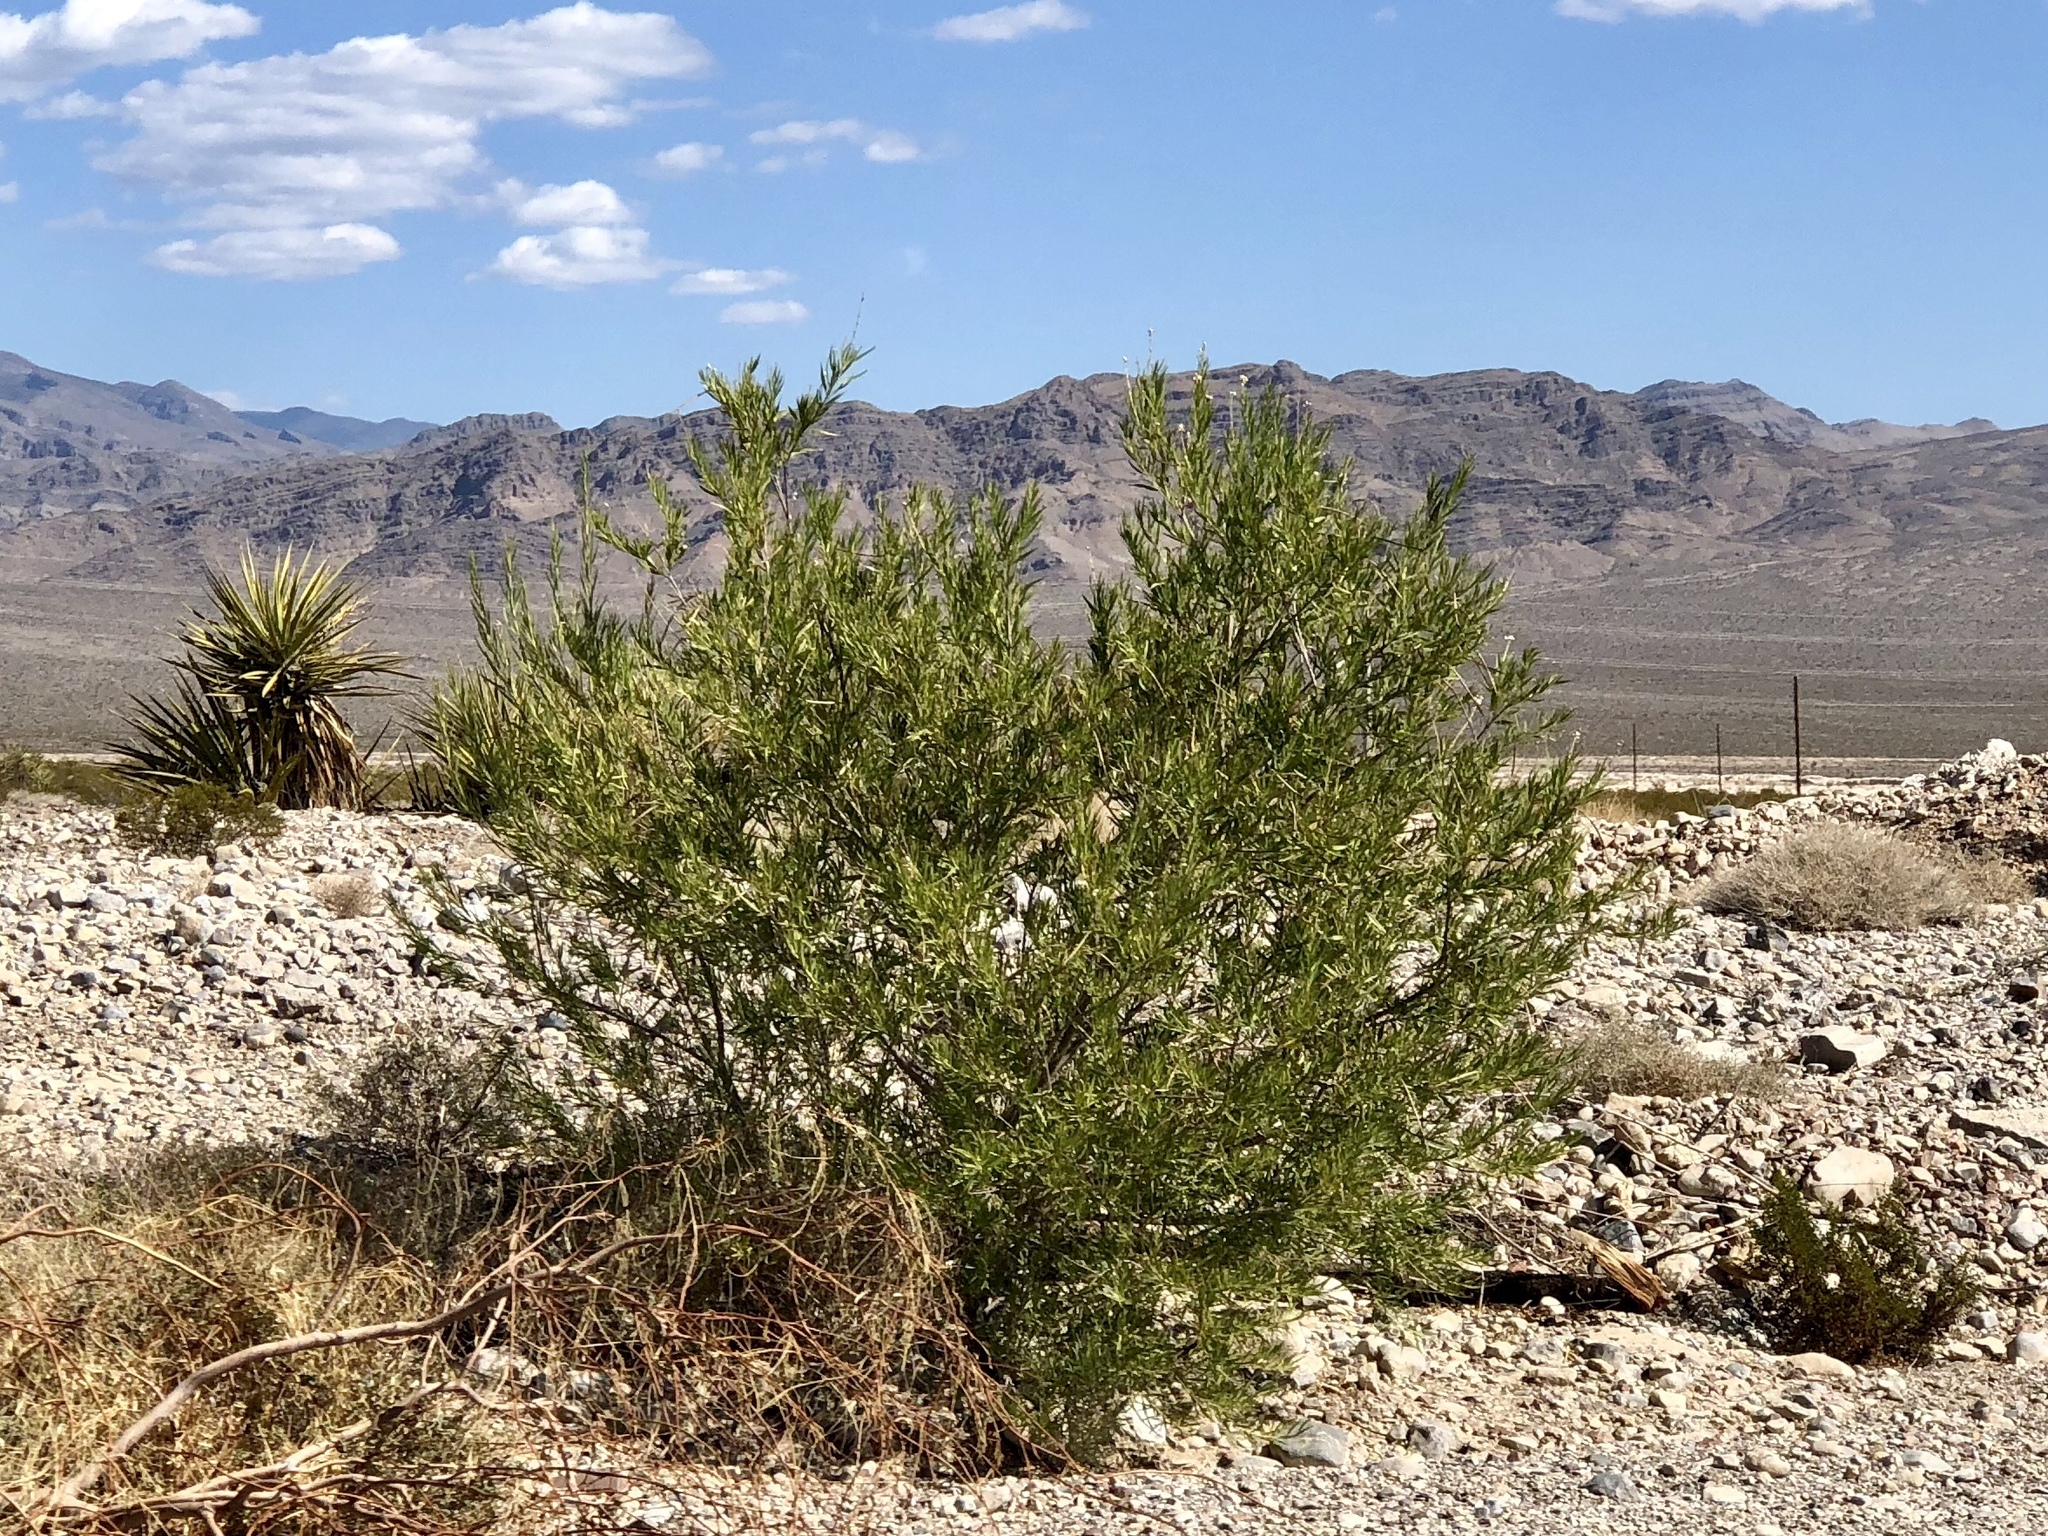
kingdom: Plantae
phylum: Tracheophyta
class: Magnoliopsida
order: Lamiales
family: Bignoniaceae
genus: Chilopsis
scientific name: Chilopsis linearis
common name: Desert-willow
